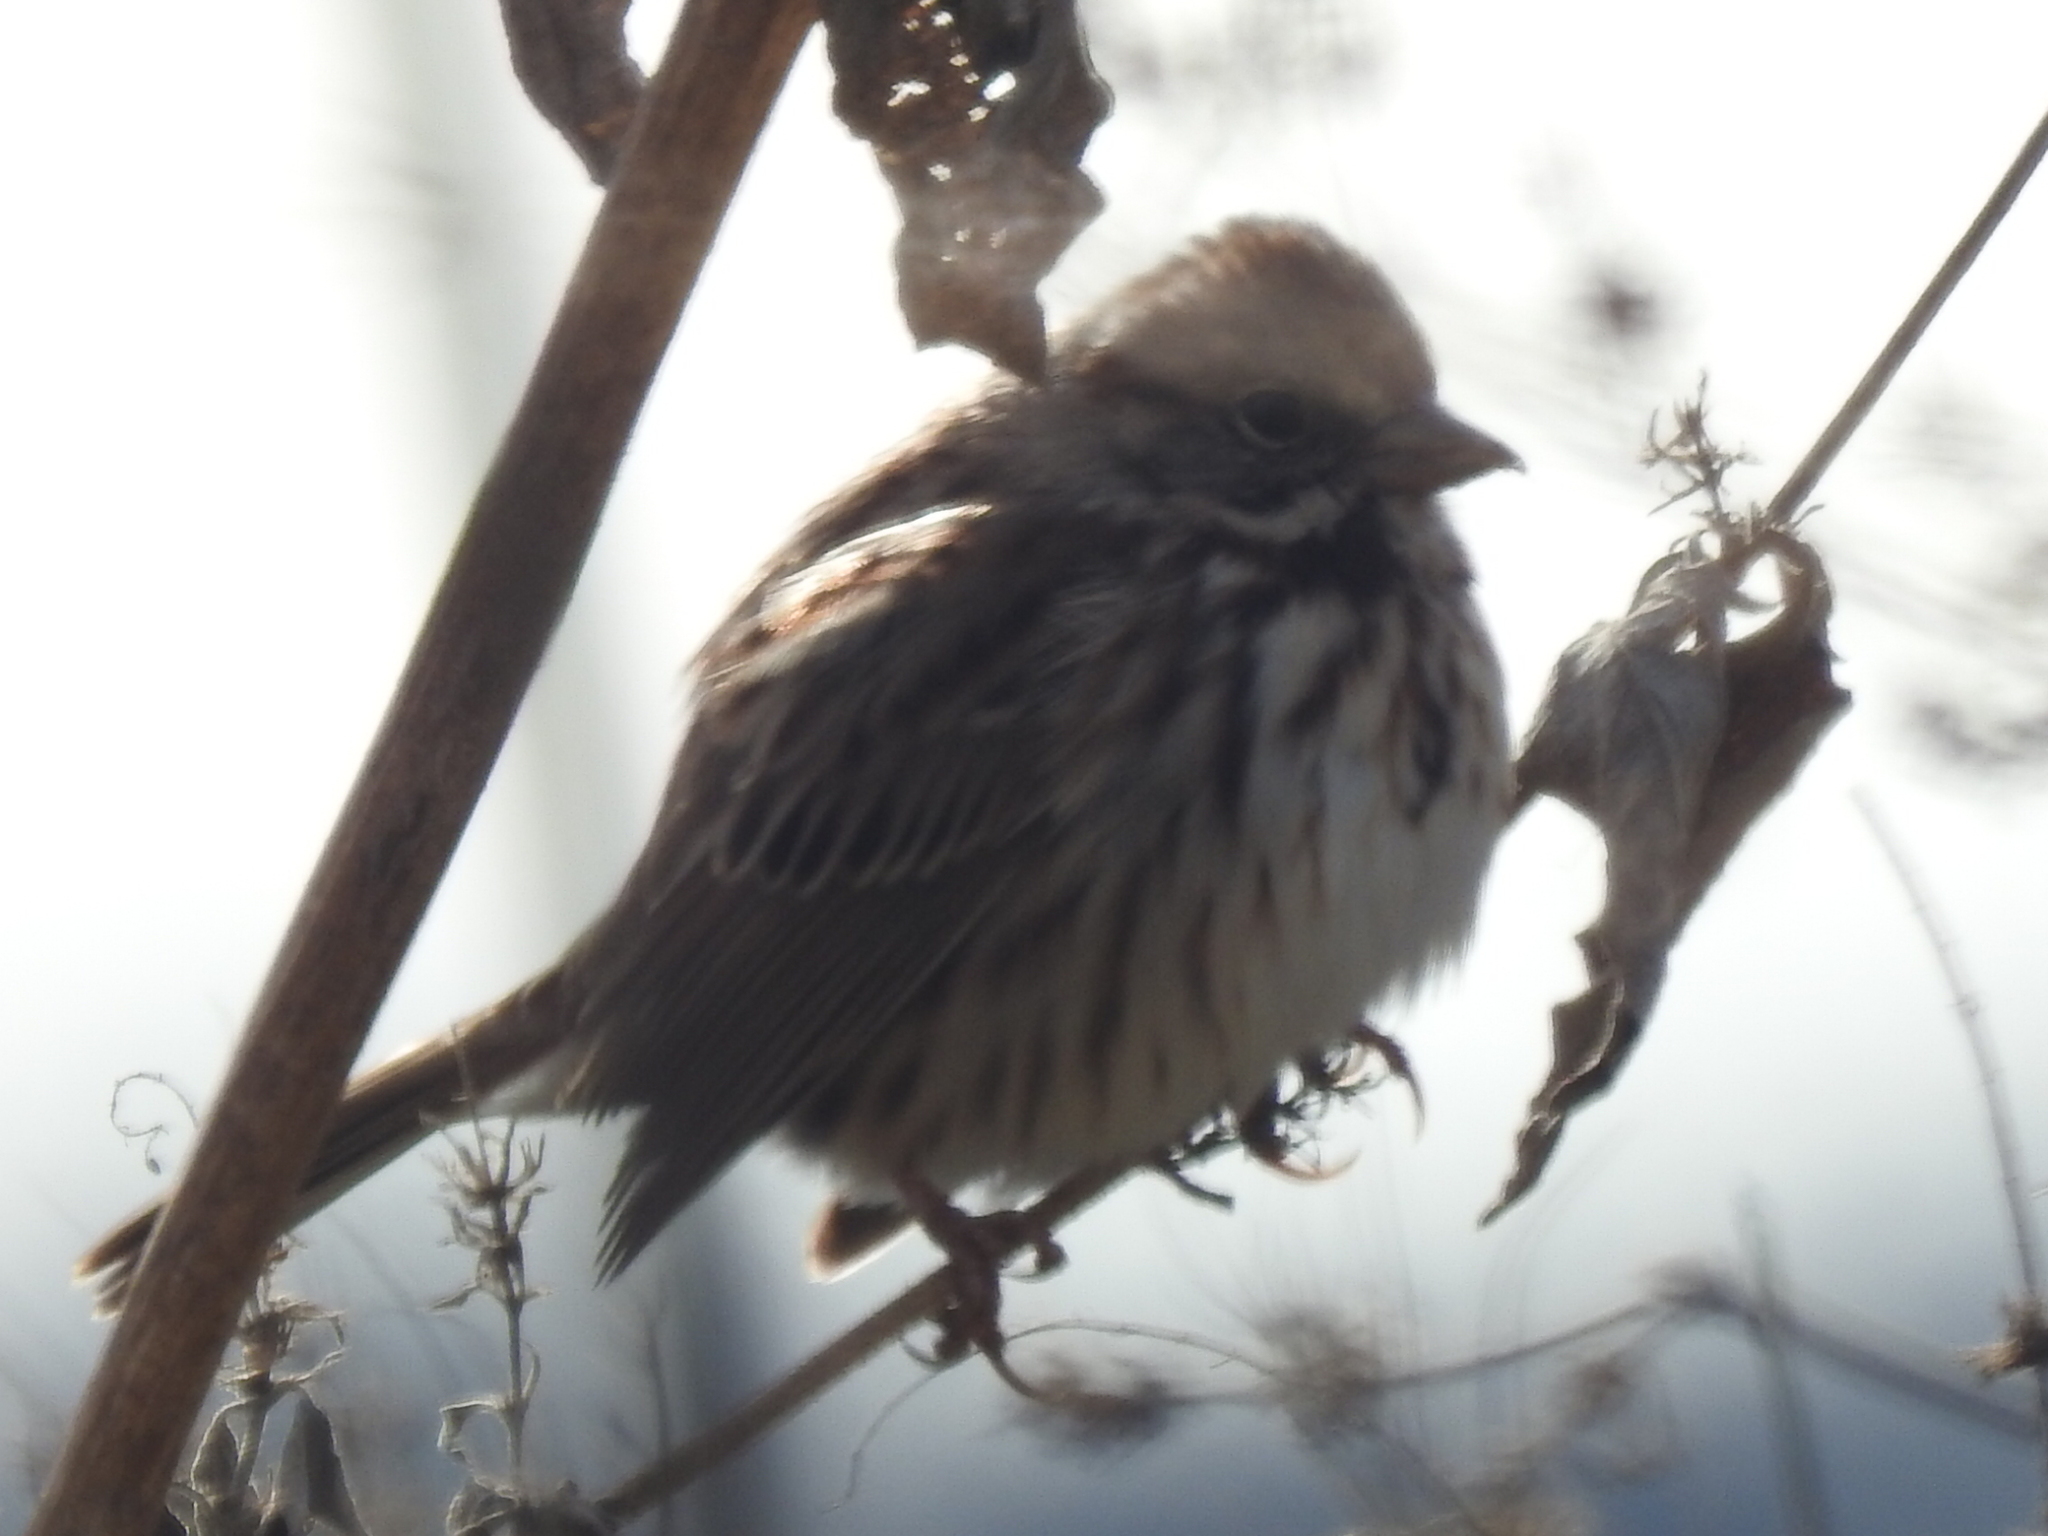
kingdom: Animalia
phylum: Chordata
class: Aves
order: Passeriformes
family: Passerellidae
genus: Melospiza
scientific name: Melospiza melodia
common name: Song sparrow
